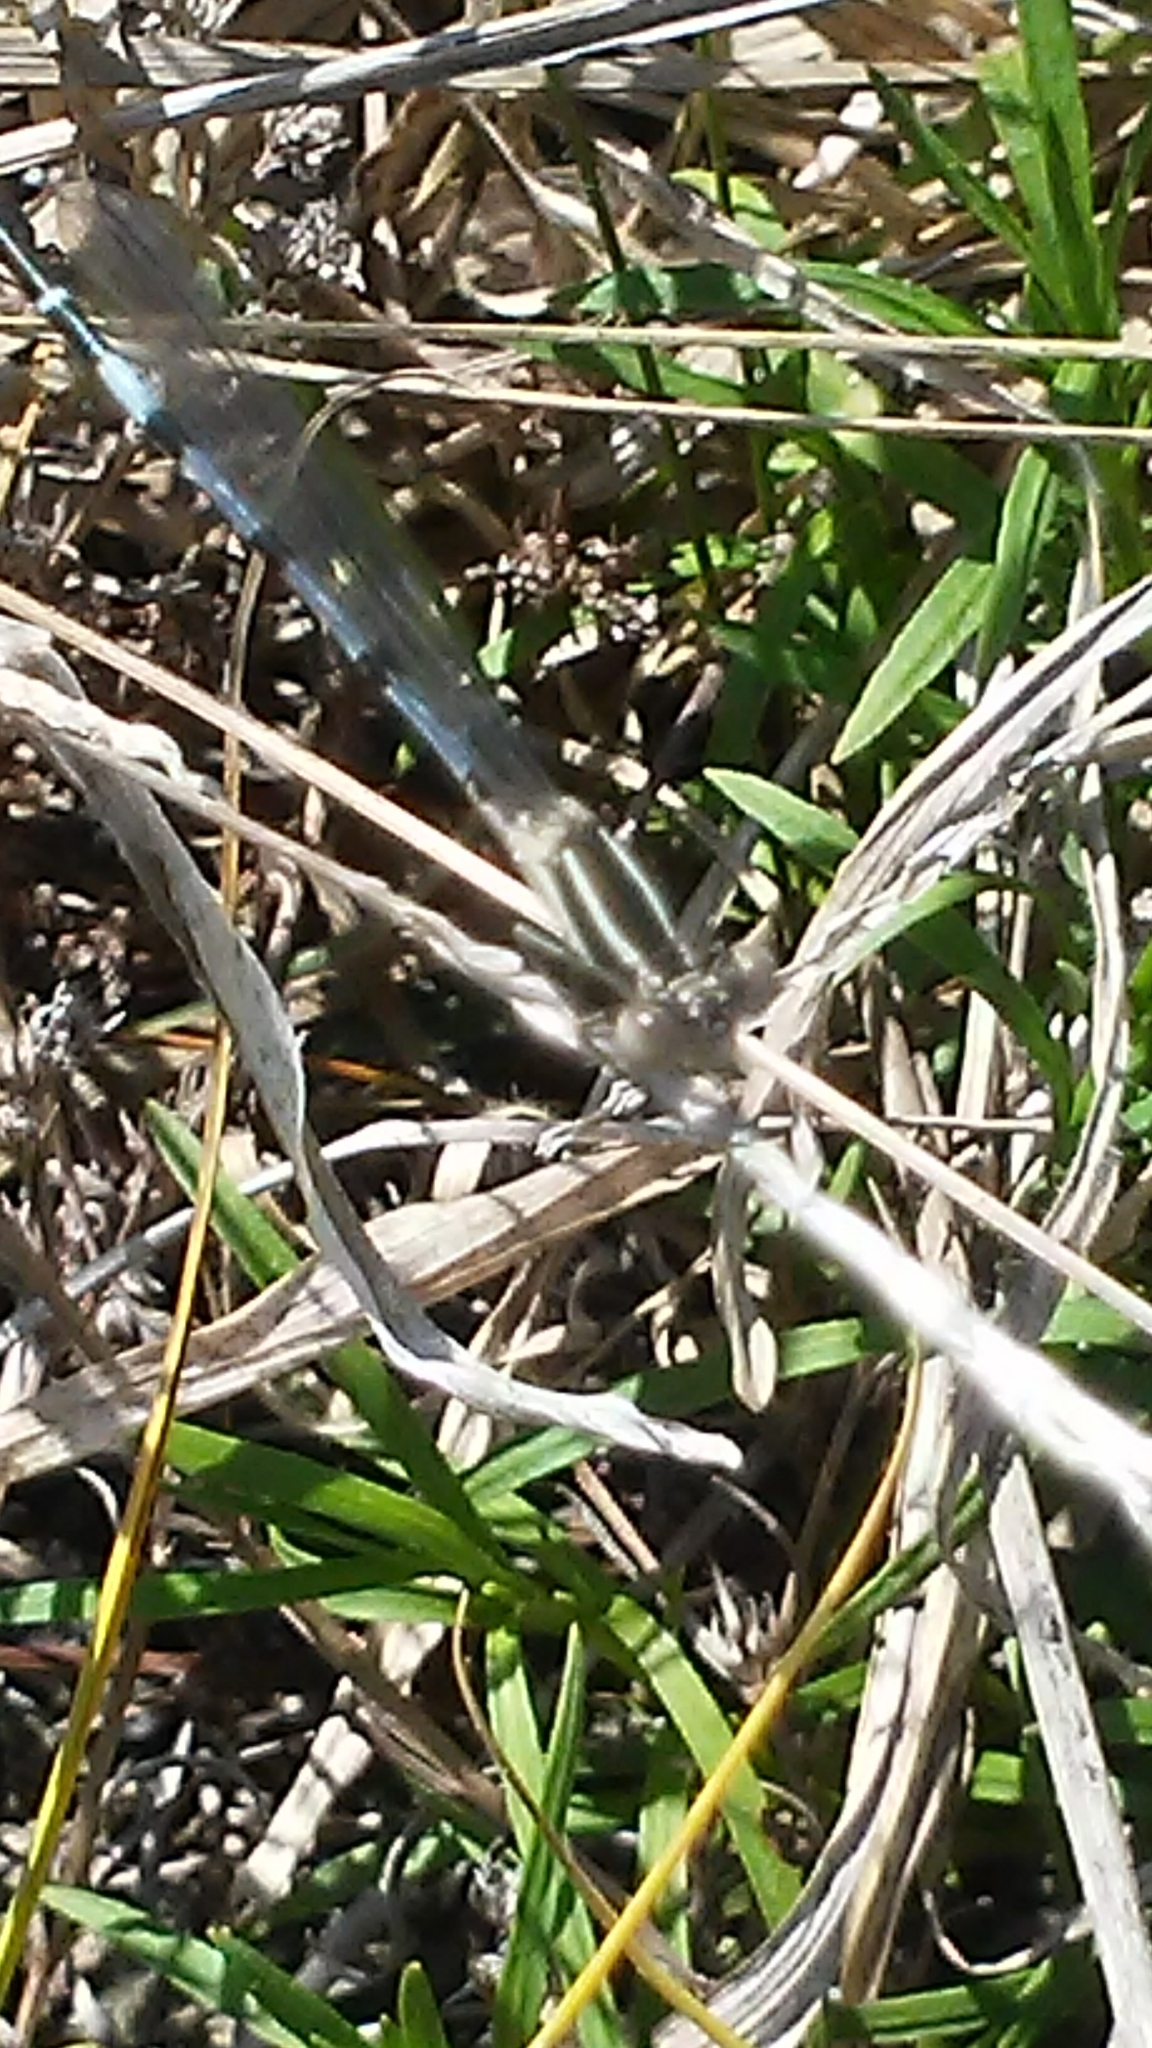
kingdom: Animalia
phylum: Arthropoda
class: Insecta
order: Odonata
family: Coenagrionidae
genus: Argia
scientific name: Argia bipunctulata
